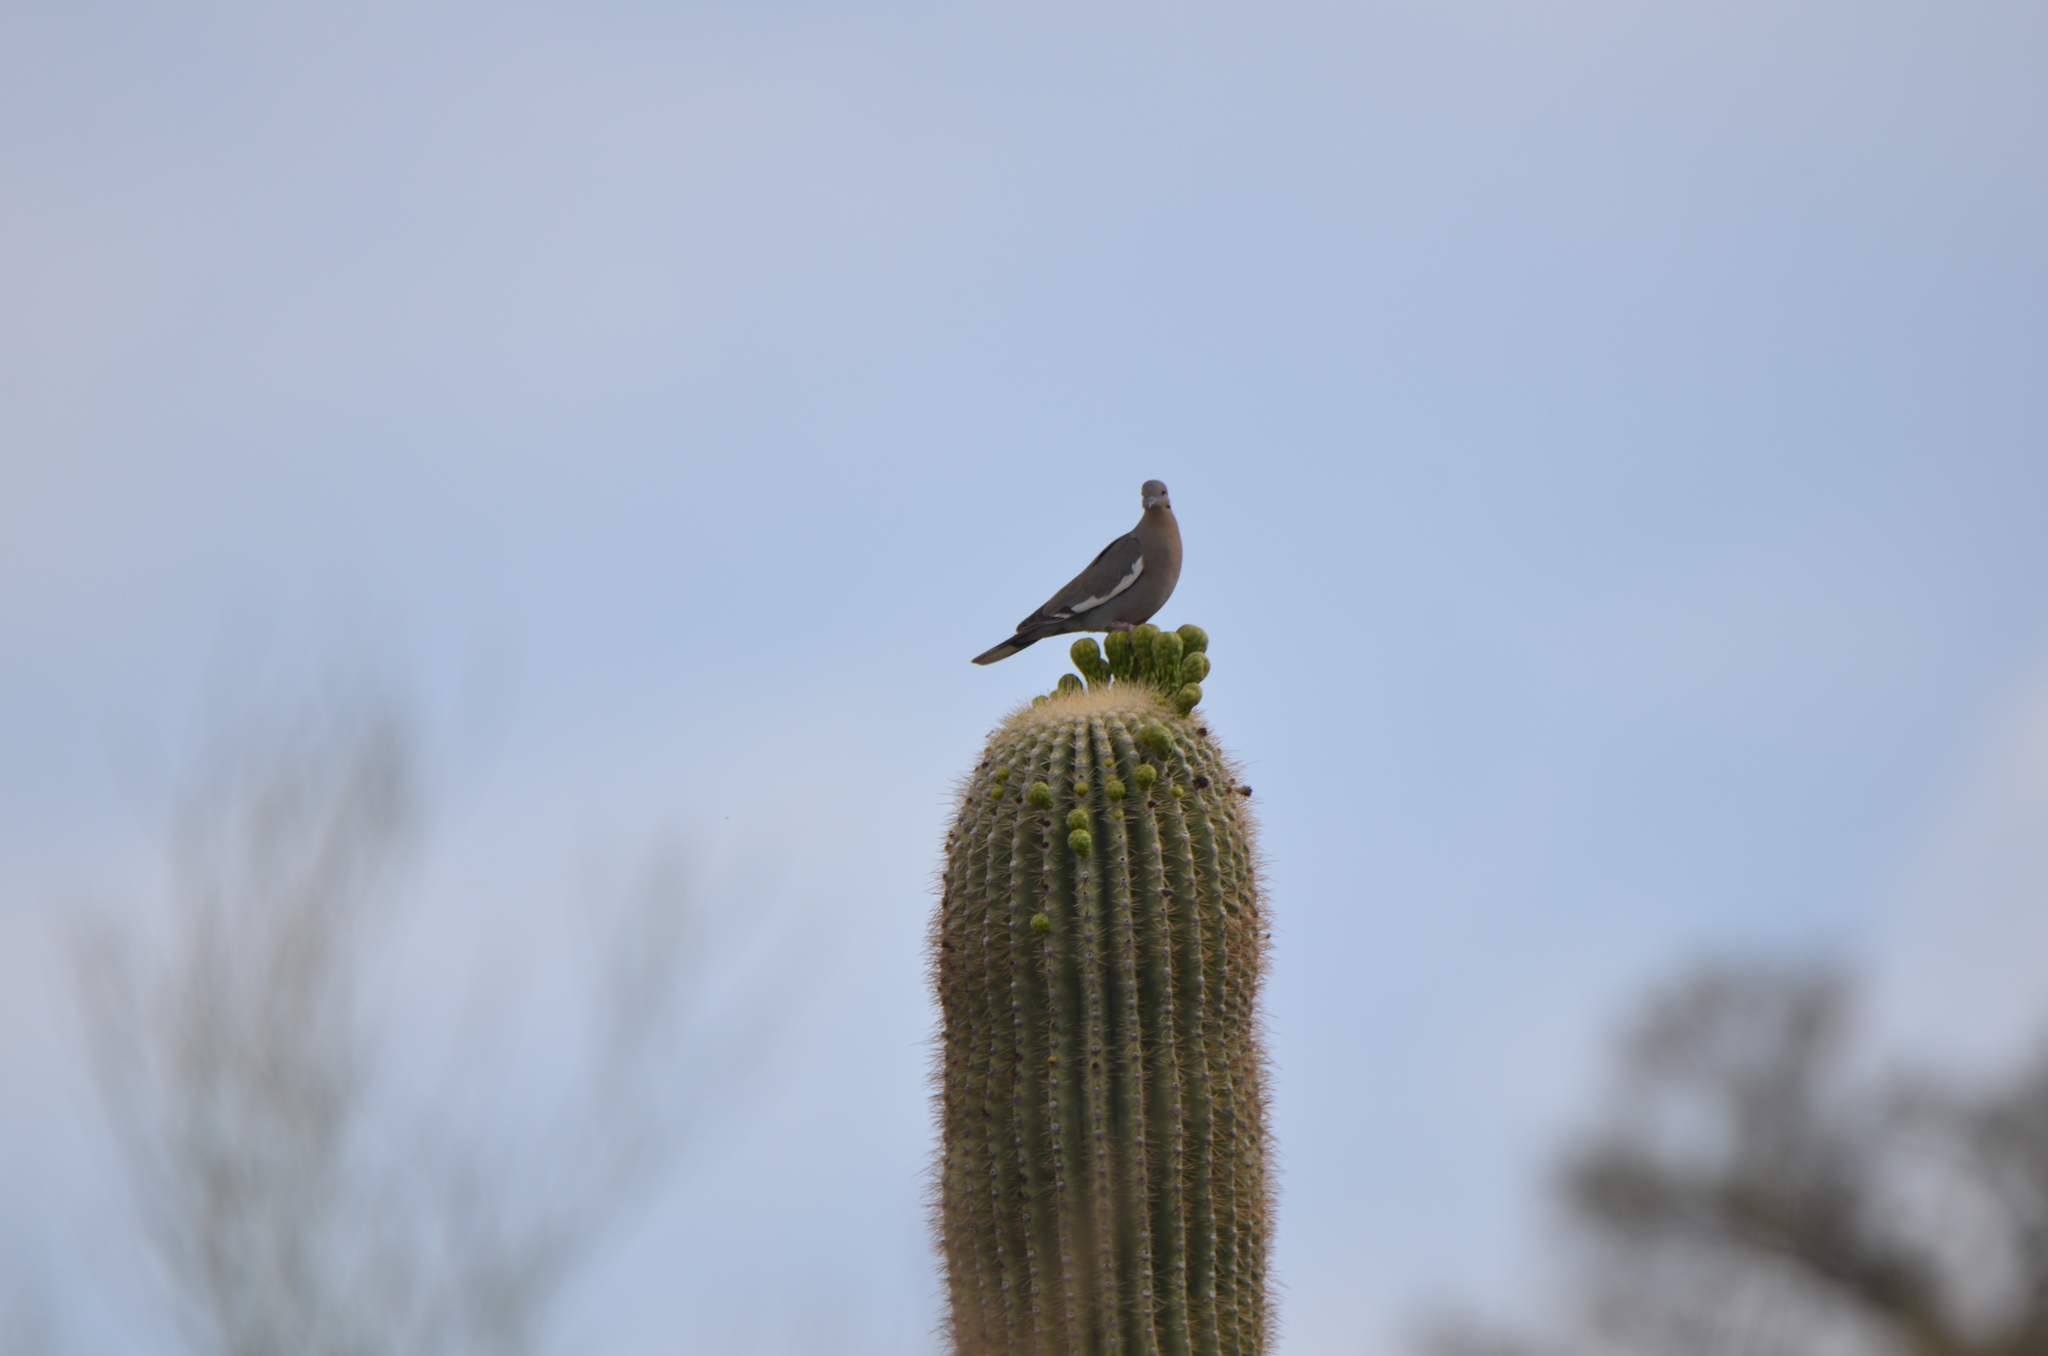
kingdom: Animalia
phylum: Chordata
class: Aves
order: Columbiformes
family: Columbidae
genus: Zenaida
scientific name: Zenaida asiatica
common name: White-winged dove
